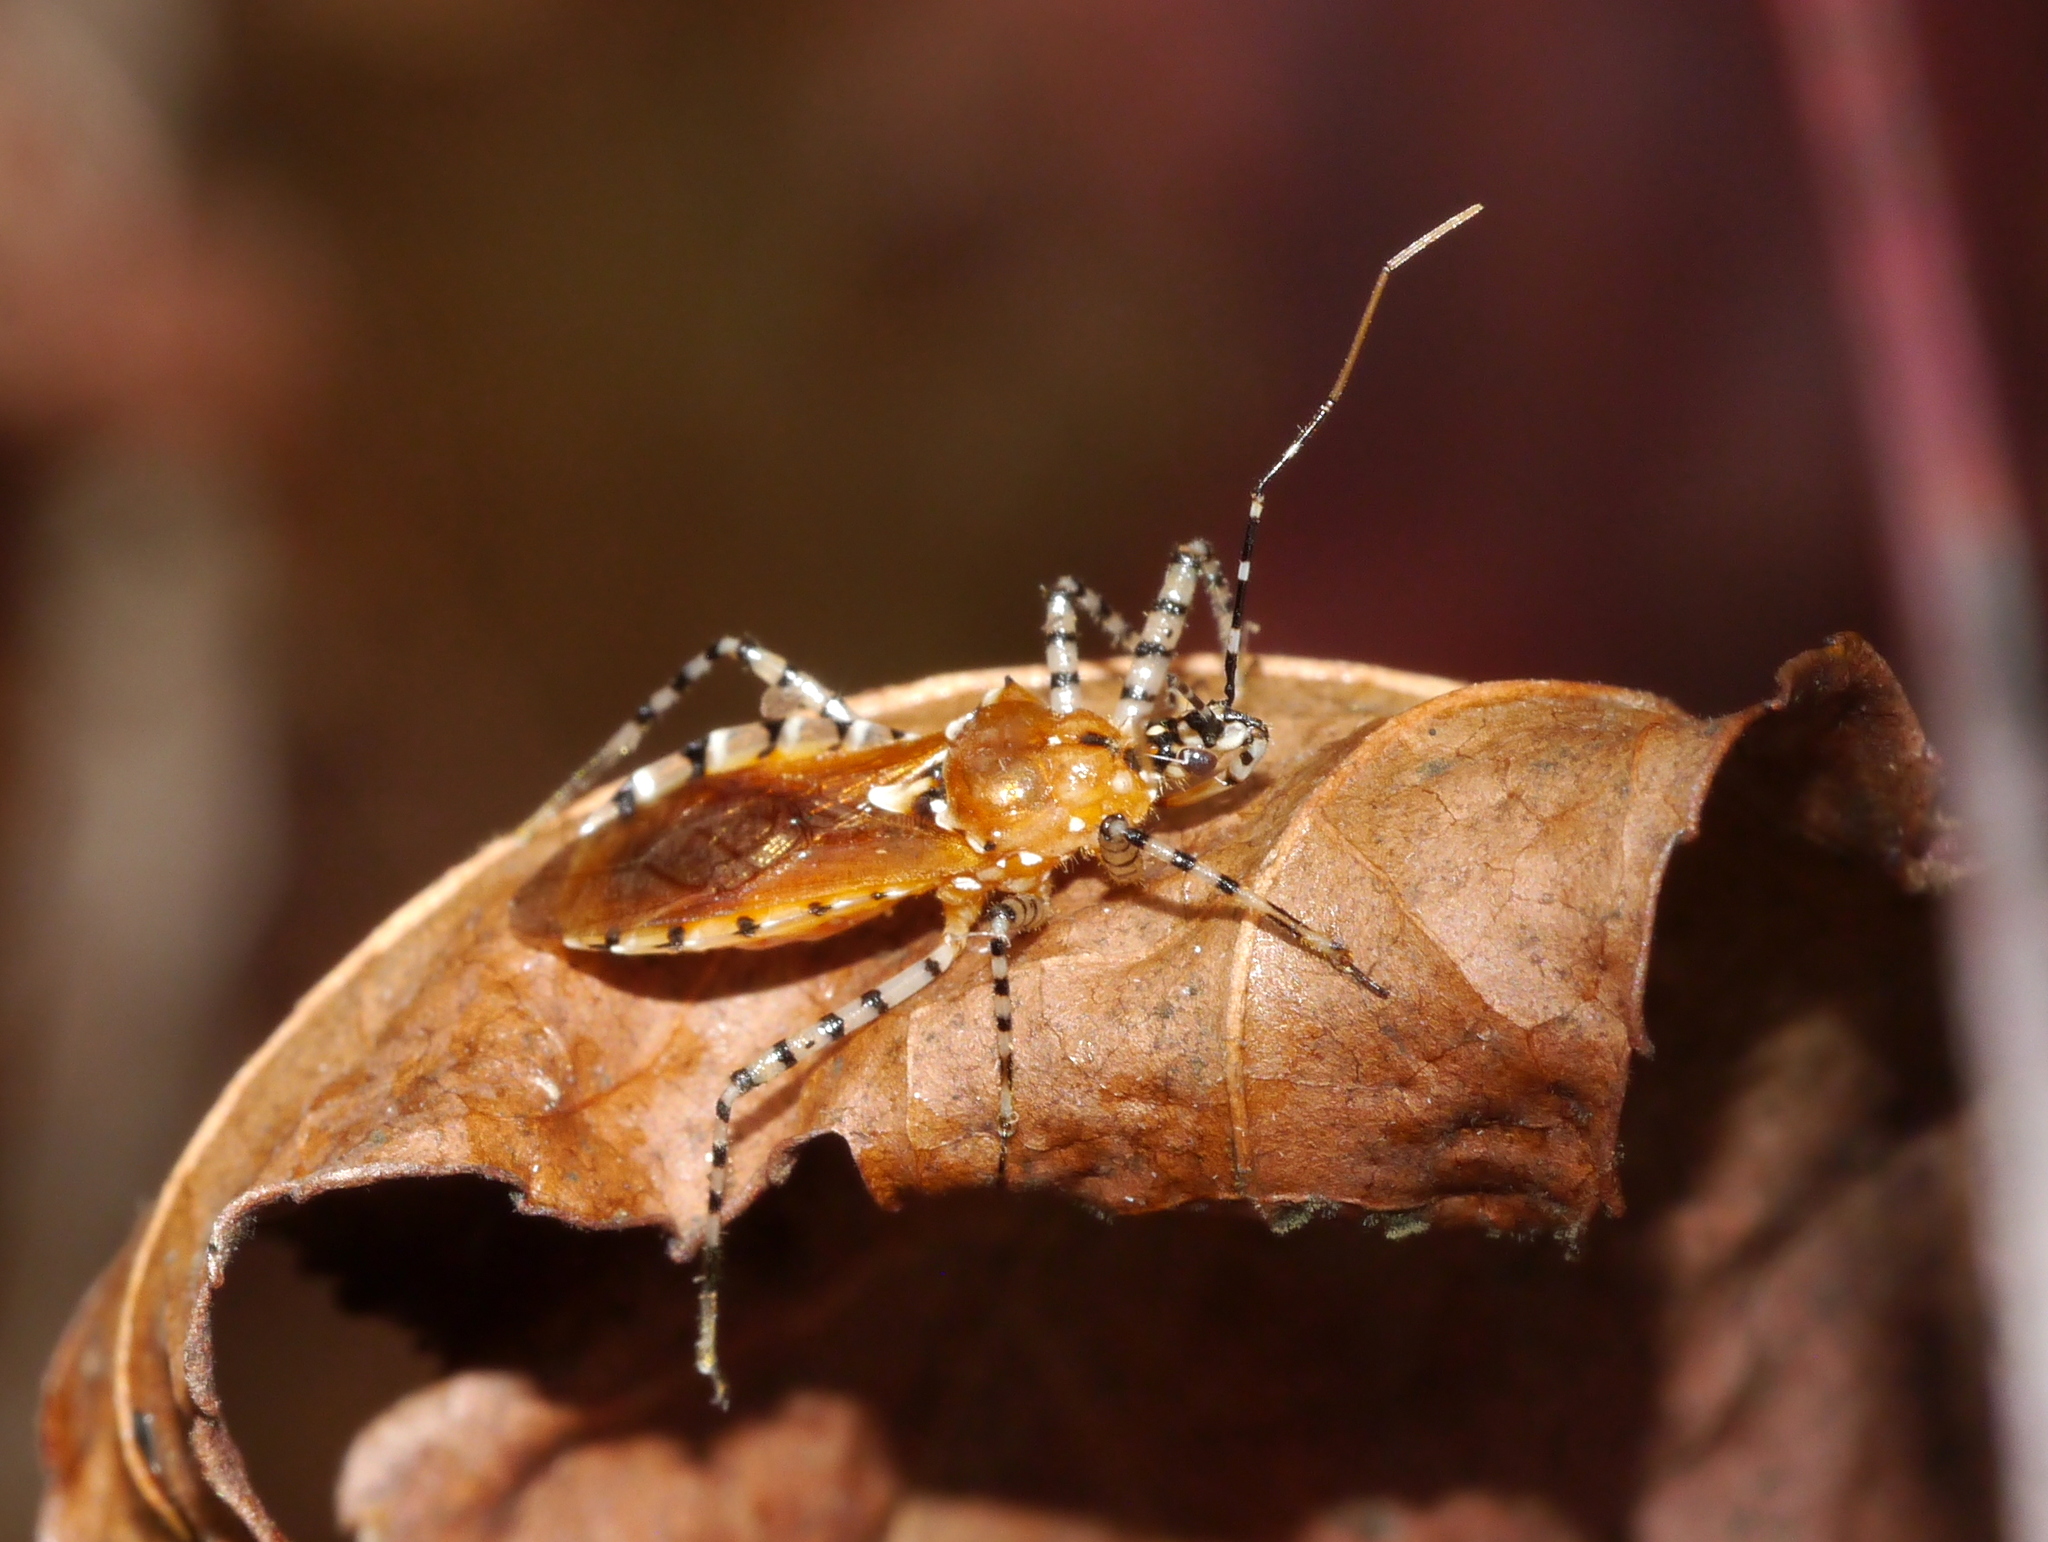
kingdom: Animalia
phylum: Arthropoda
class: Insecta
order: Hemiptera
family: Reduviidae
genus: Pselliopus
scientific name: Pselliopus cinctus
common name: Ringed assassin bug
